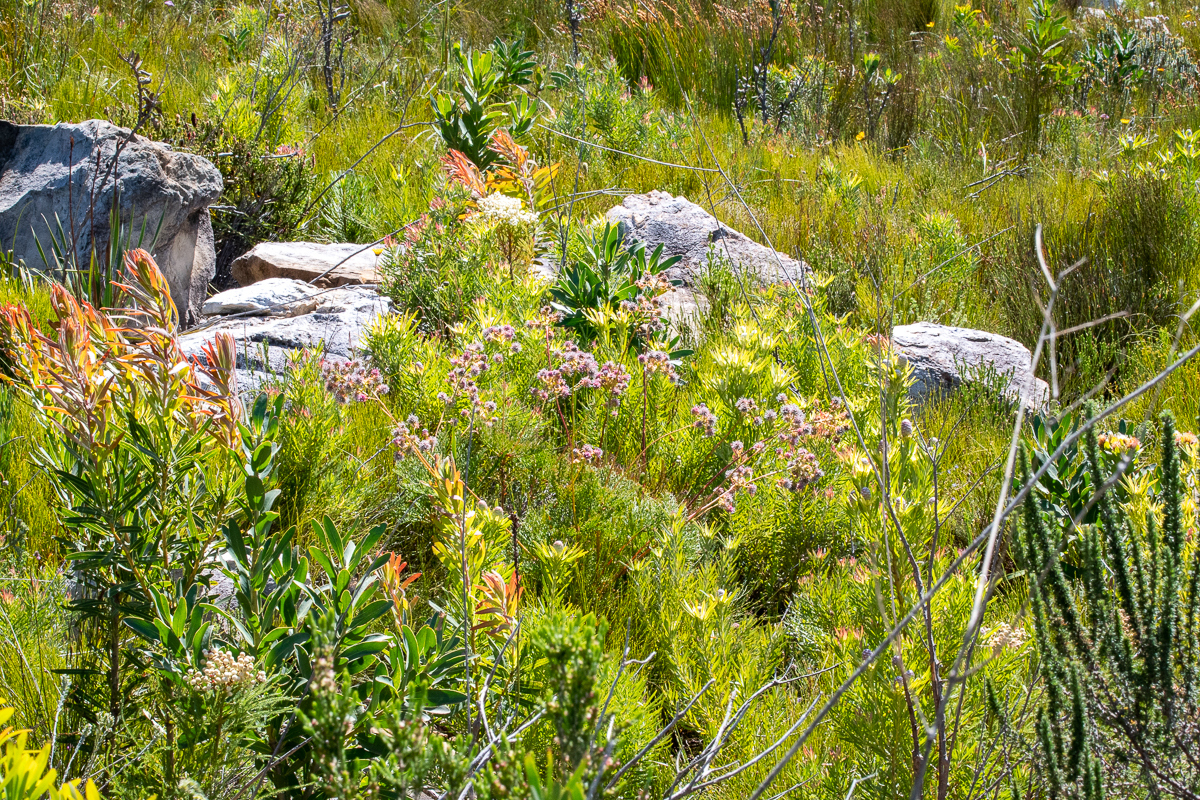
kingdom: Plantae
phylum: Tracheophyta
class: Magnoliopsida
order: Proteales
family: Proteaceae
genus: Serruria
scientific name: Serruria elongata
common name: Long-stalk spiderhead
